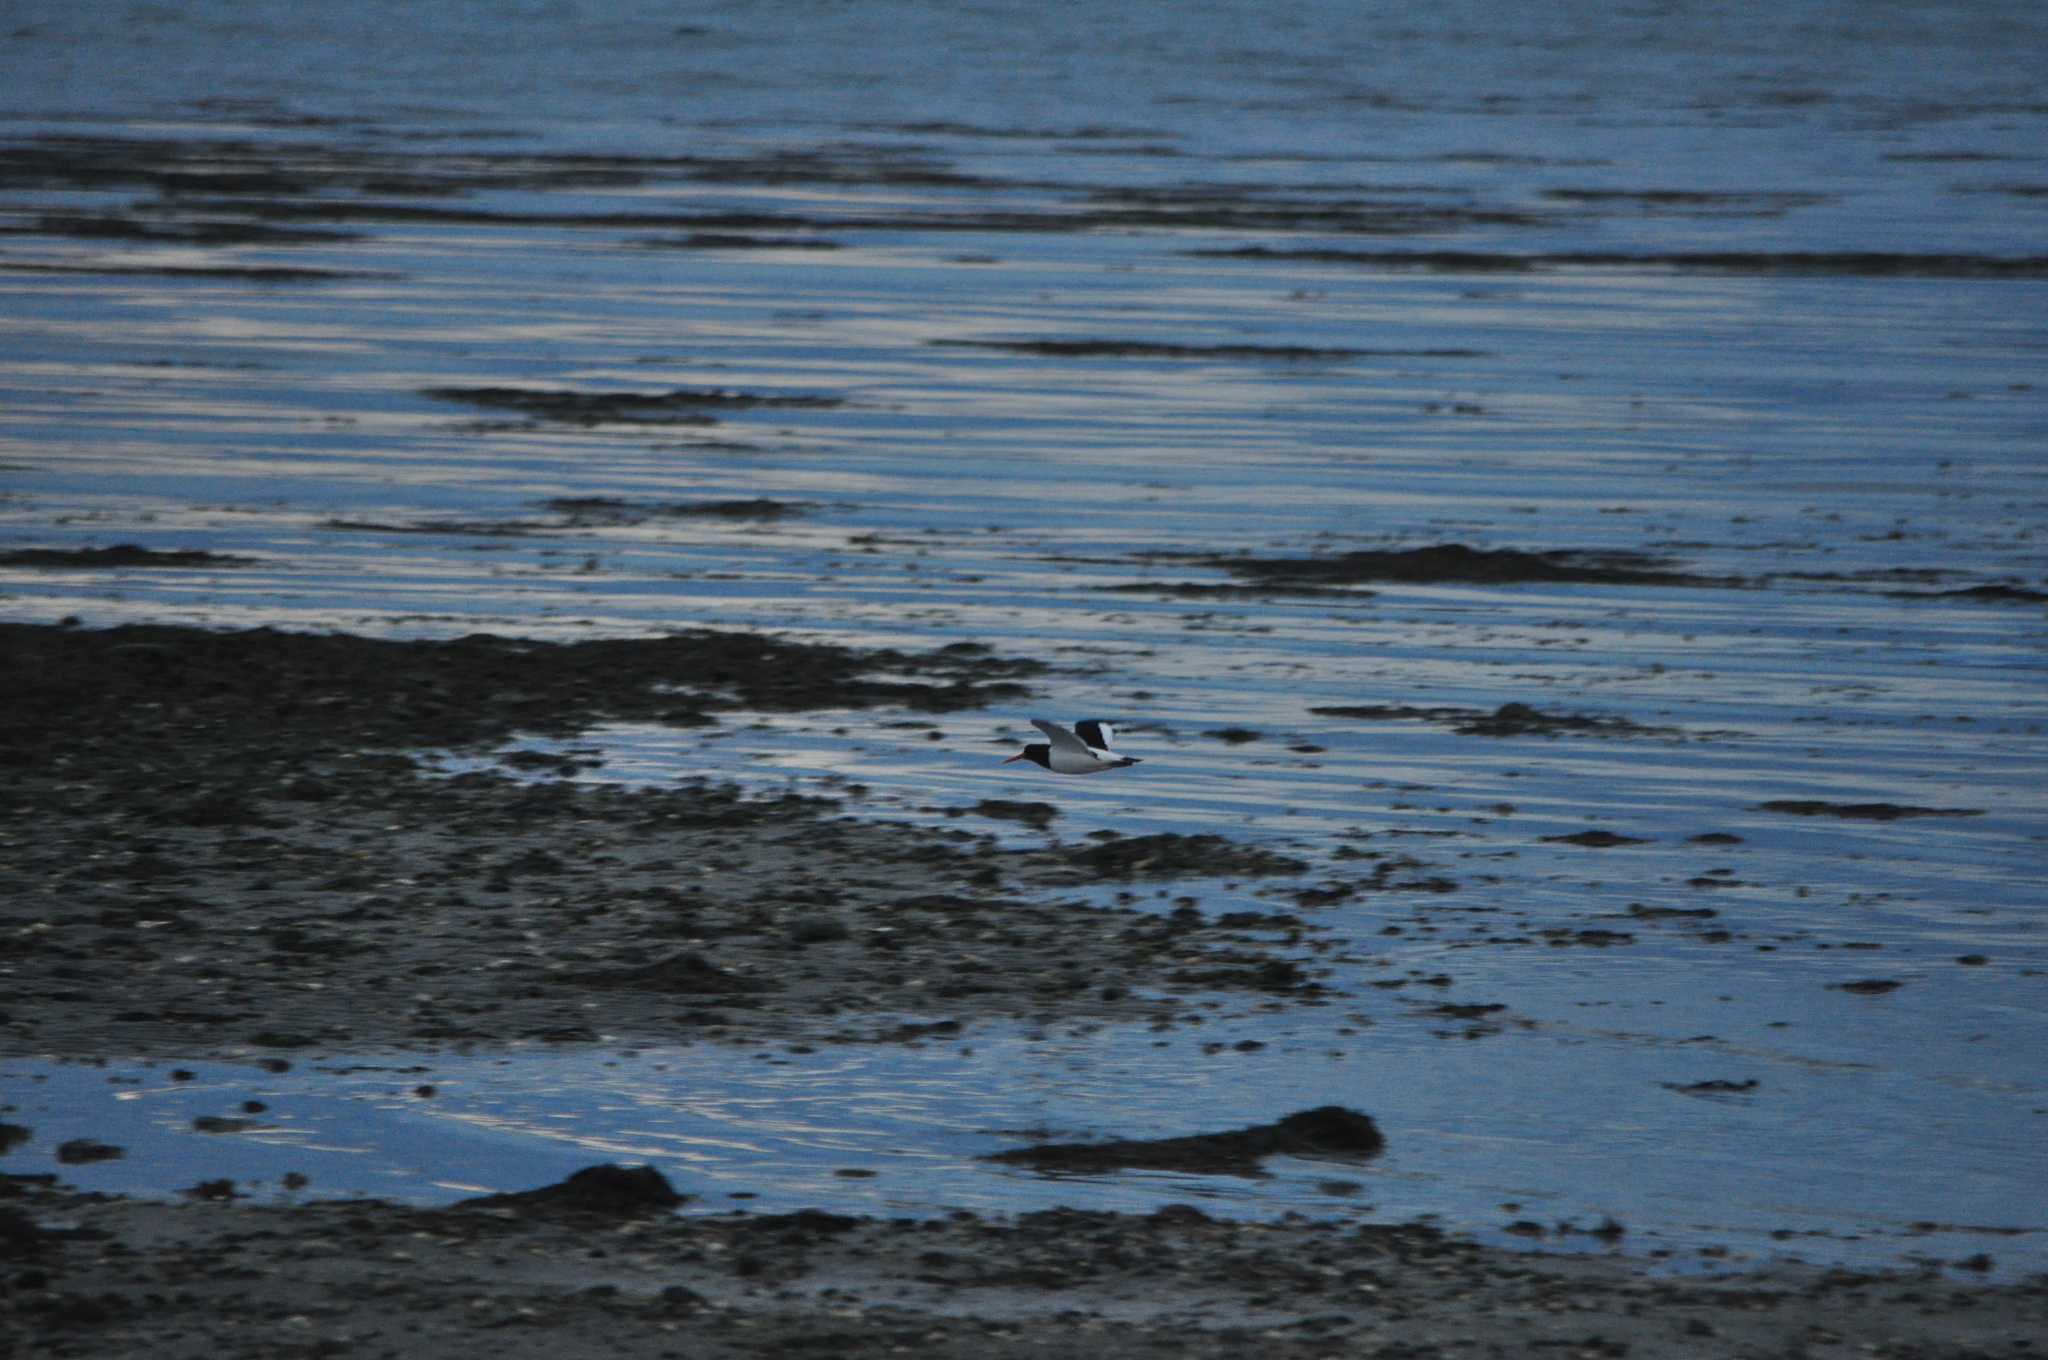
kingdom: Animalia
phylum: Chordata
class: Aves
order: Charadriiformes
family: Haematopodidae
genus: Haematopus
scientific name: Haematopus ostralegus
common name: Eurasian oystercatcher
